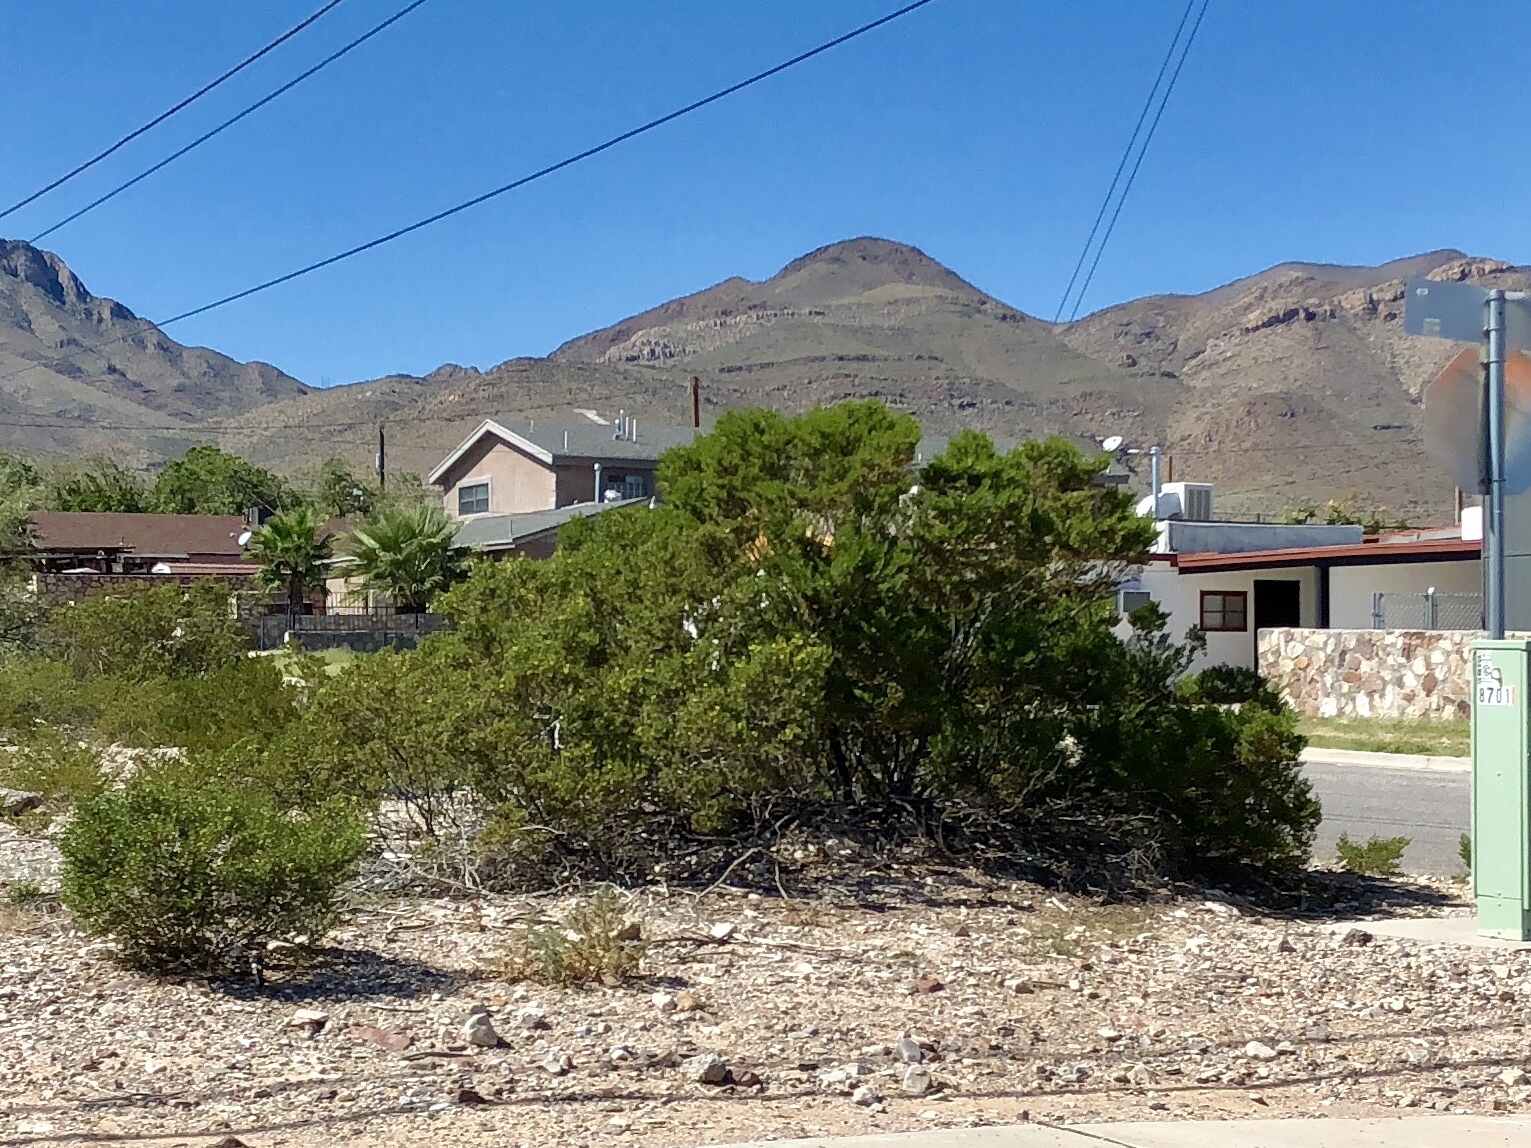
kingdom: Plantae
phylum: Tracheophyta
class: Magnoliopsida
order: Zygophyllales
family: Zygophyllaceae
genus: Larrea
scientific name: Larrea tridentata
